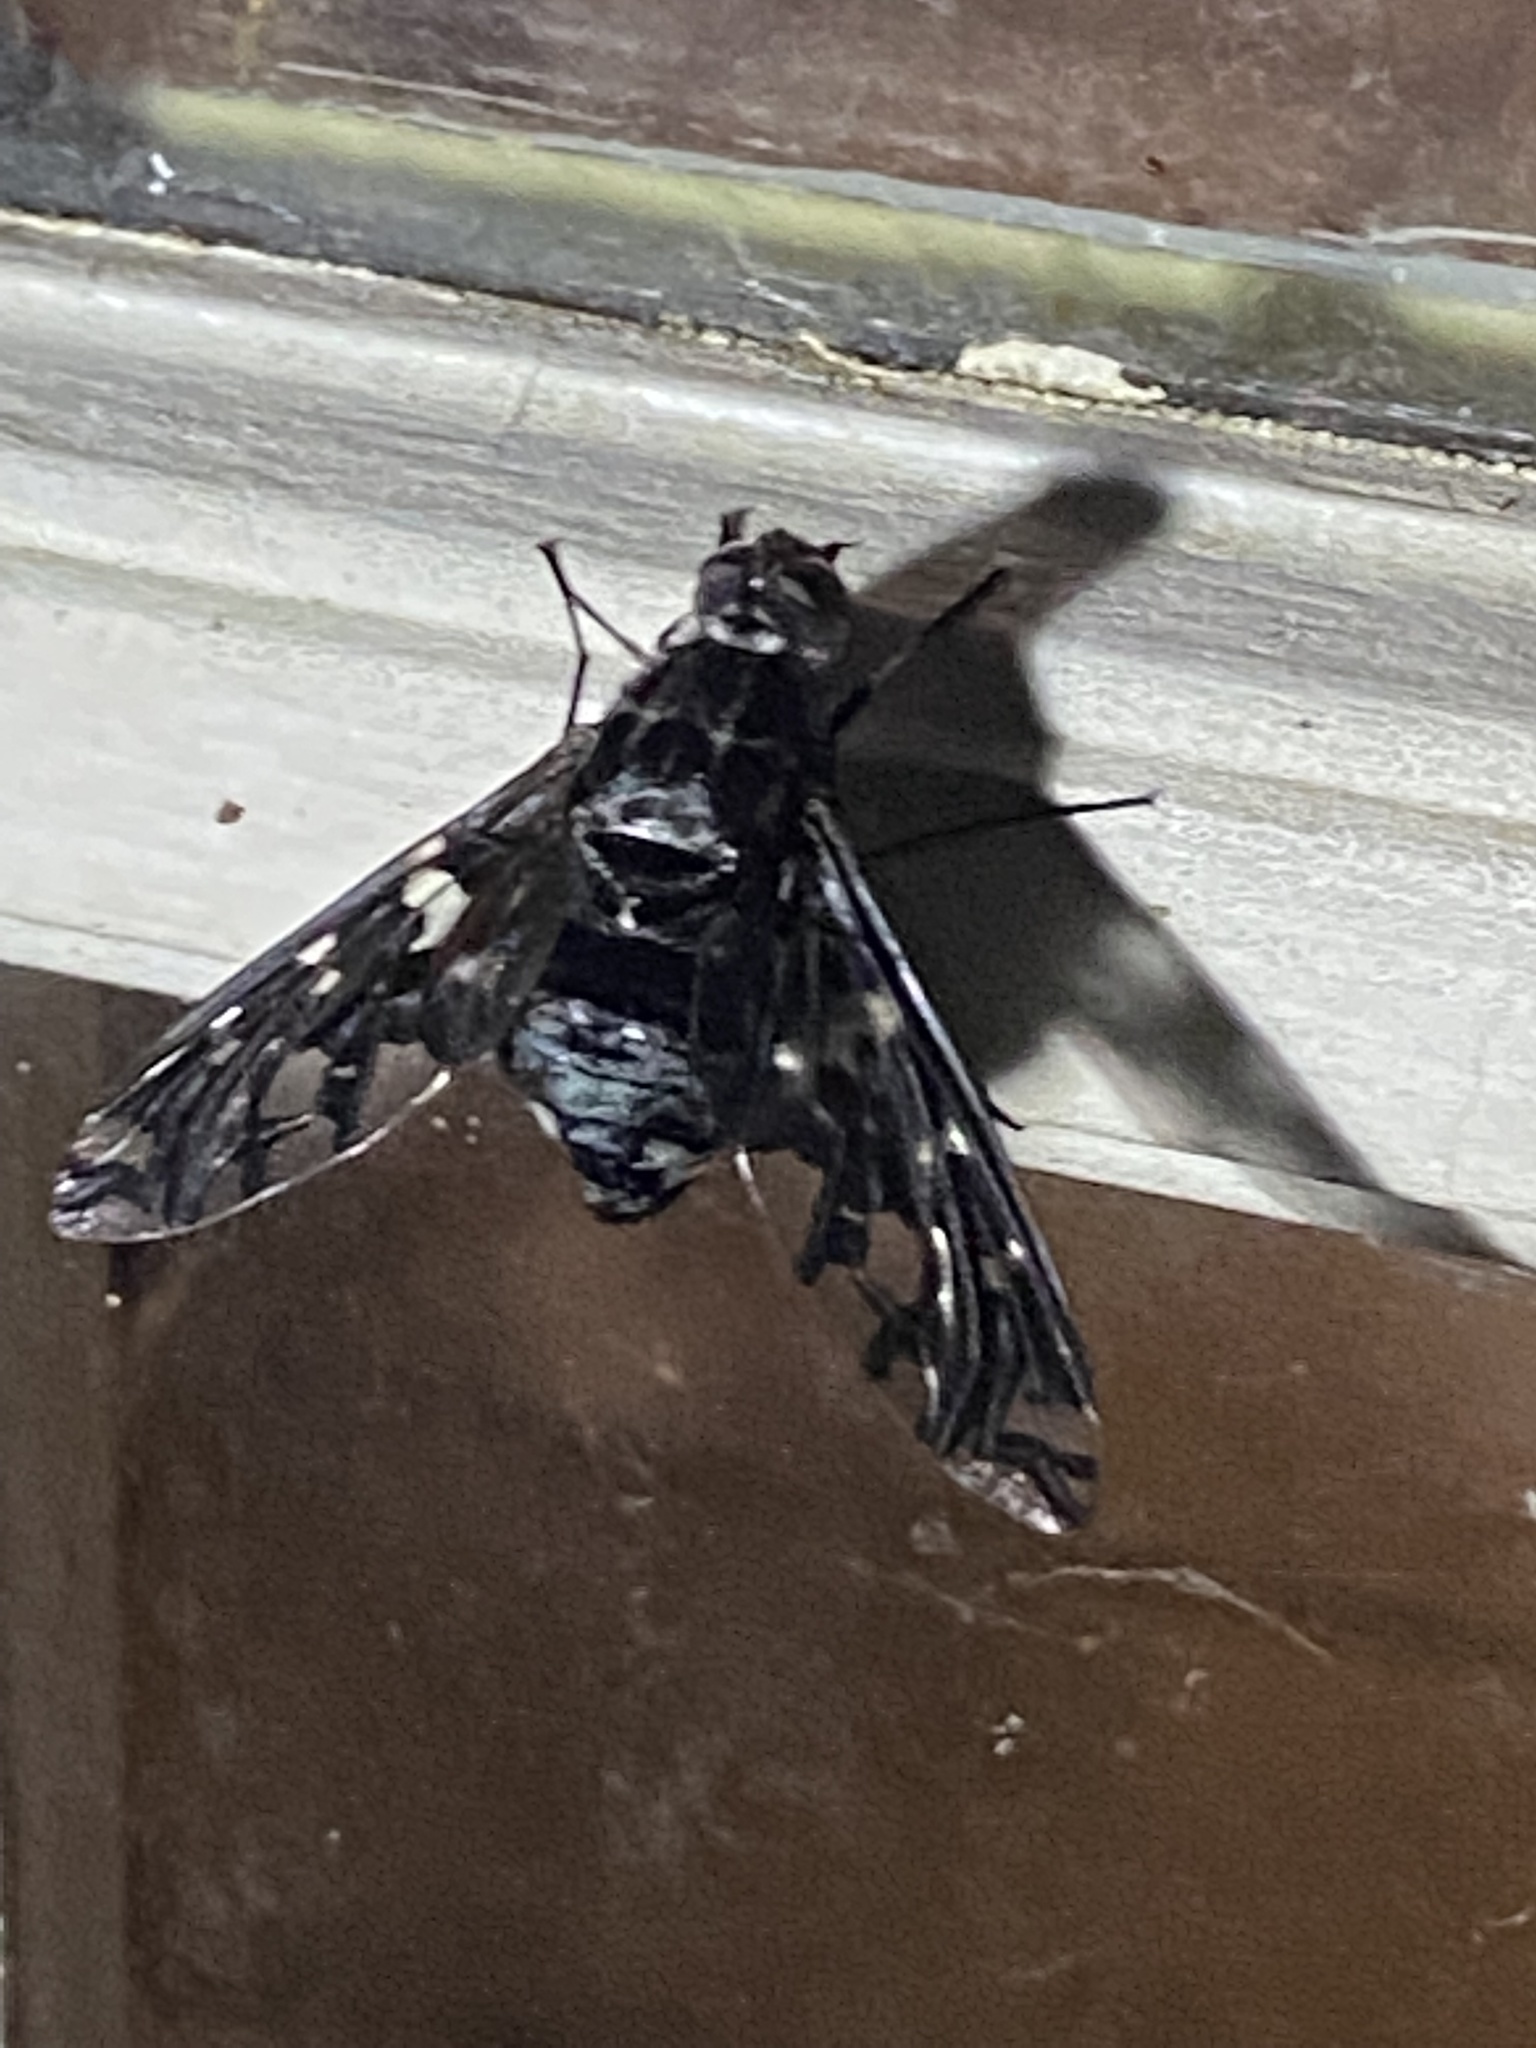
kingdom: Animalia
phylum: Arthropoda
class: Insecta
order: Diptera
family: Bombyliidae
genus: Xenox
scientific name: Xenox tigrinus
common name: Tiger bee fly
